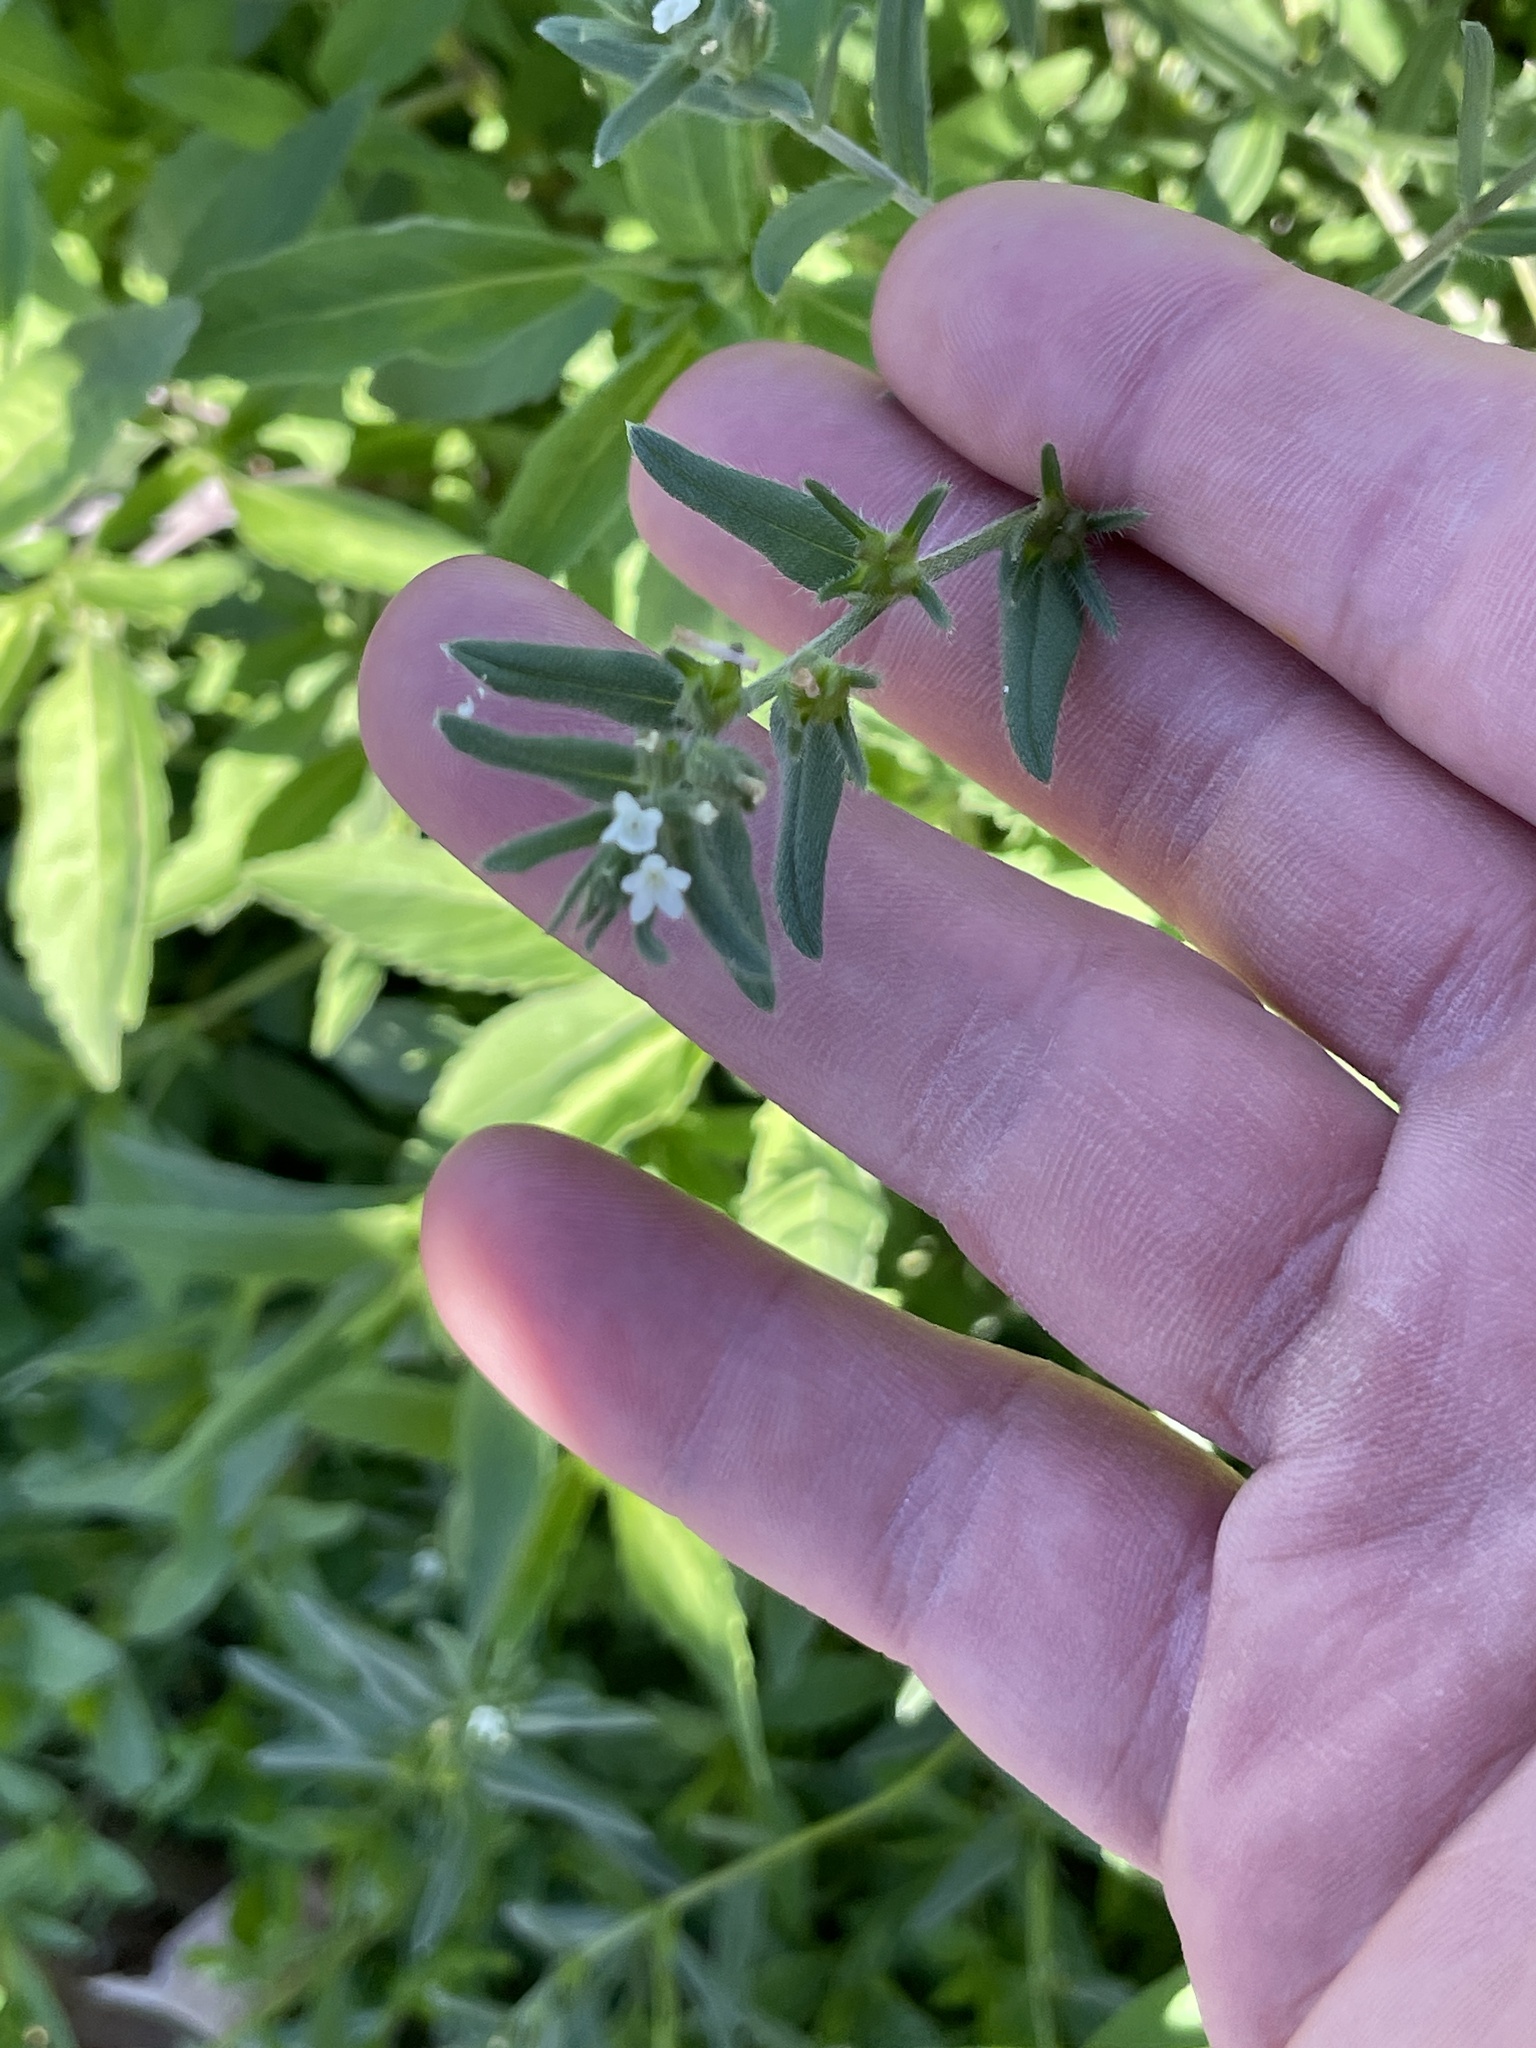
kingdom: Plantae
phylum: Tracheophyta
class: Magnoliopsida
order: Boraginales
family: Boraginaceae
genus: Buglossoides
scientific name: Buglossoides arvensis
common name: Corn gromwell
